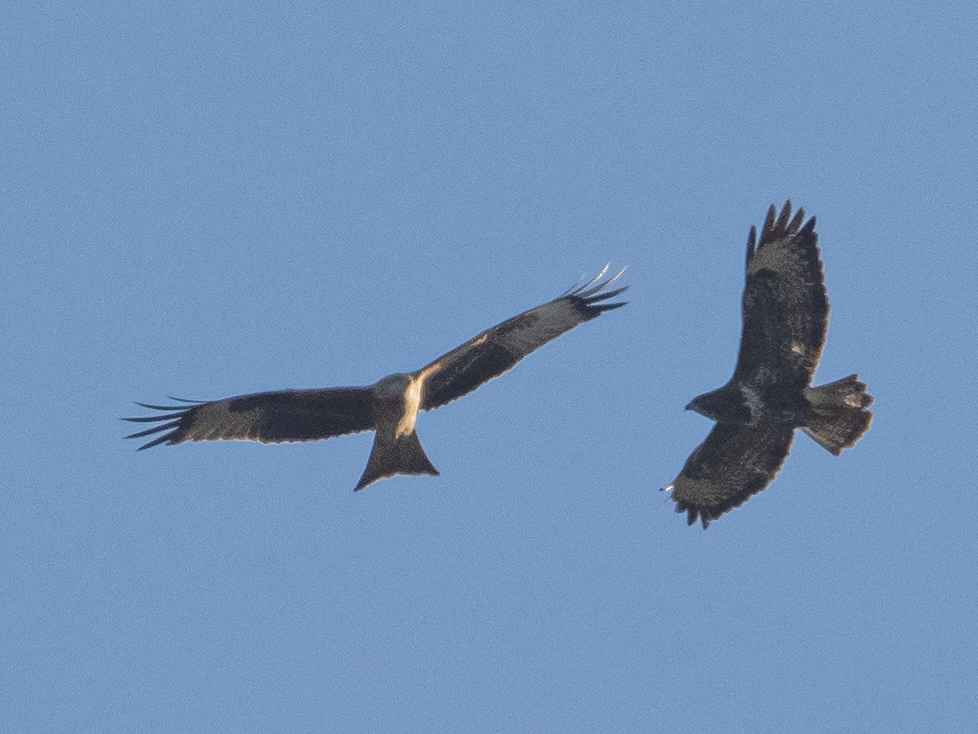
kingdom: Animalia
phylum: Chordata
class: Aves
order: Accipitriformes
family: Accipitridae
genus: Milvus
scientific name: Milvus milvus
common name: Red kite
